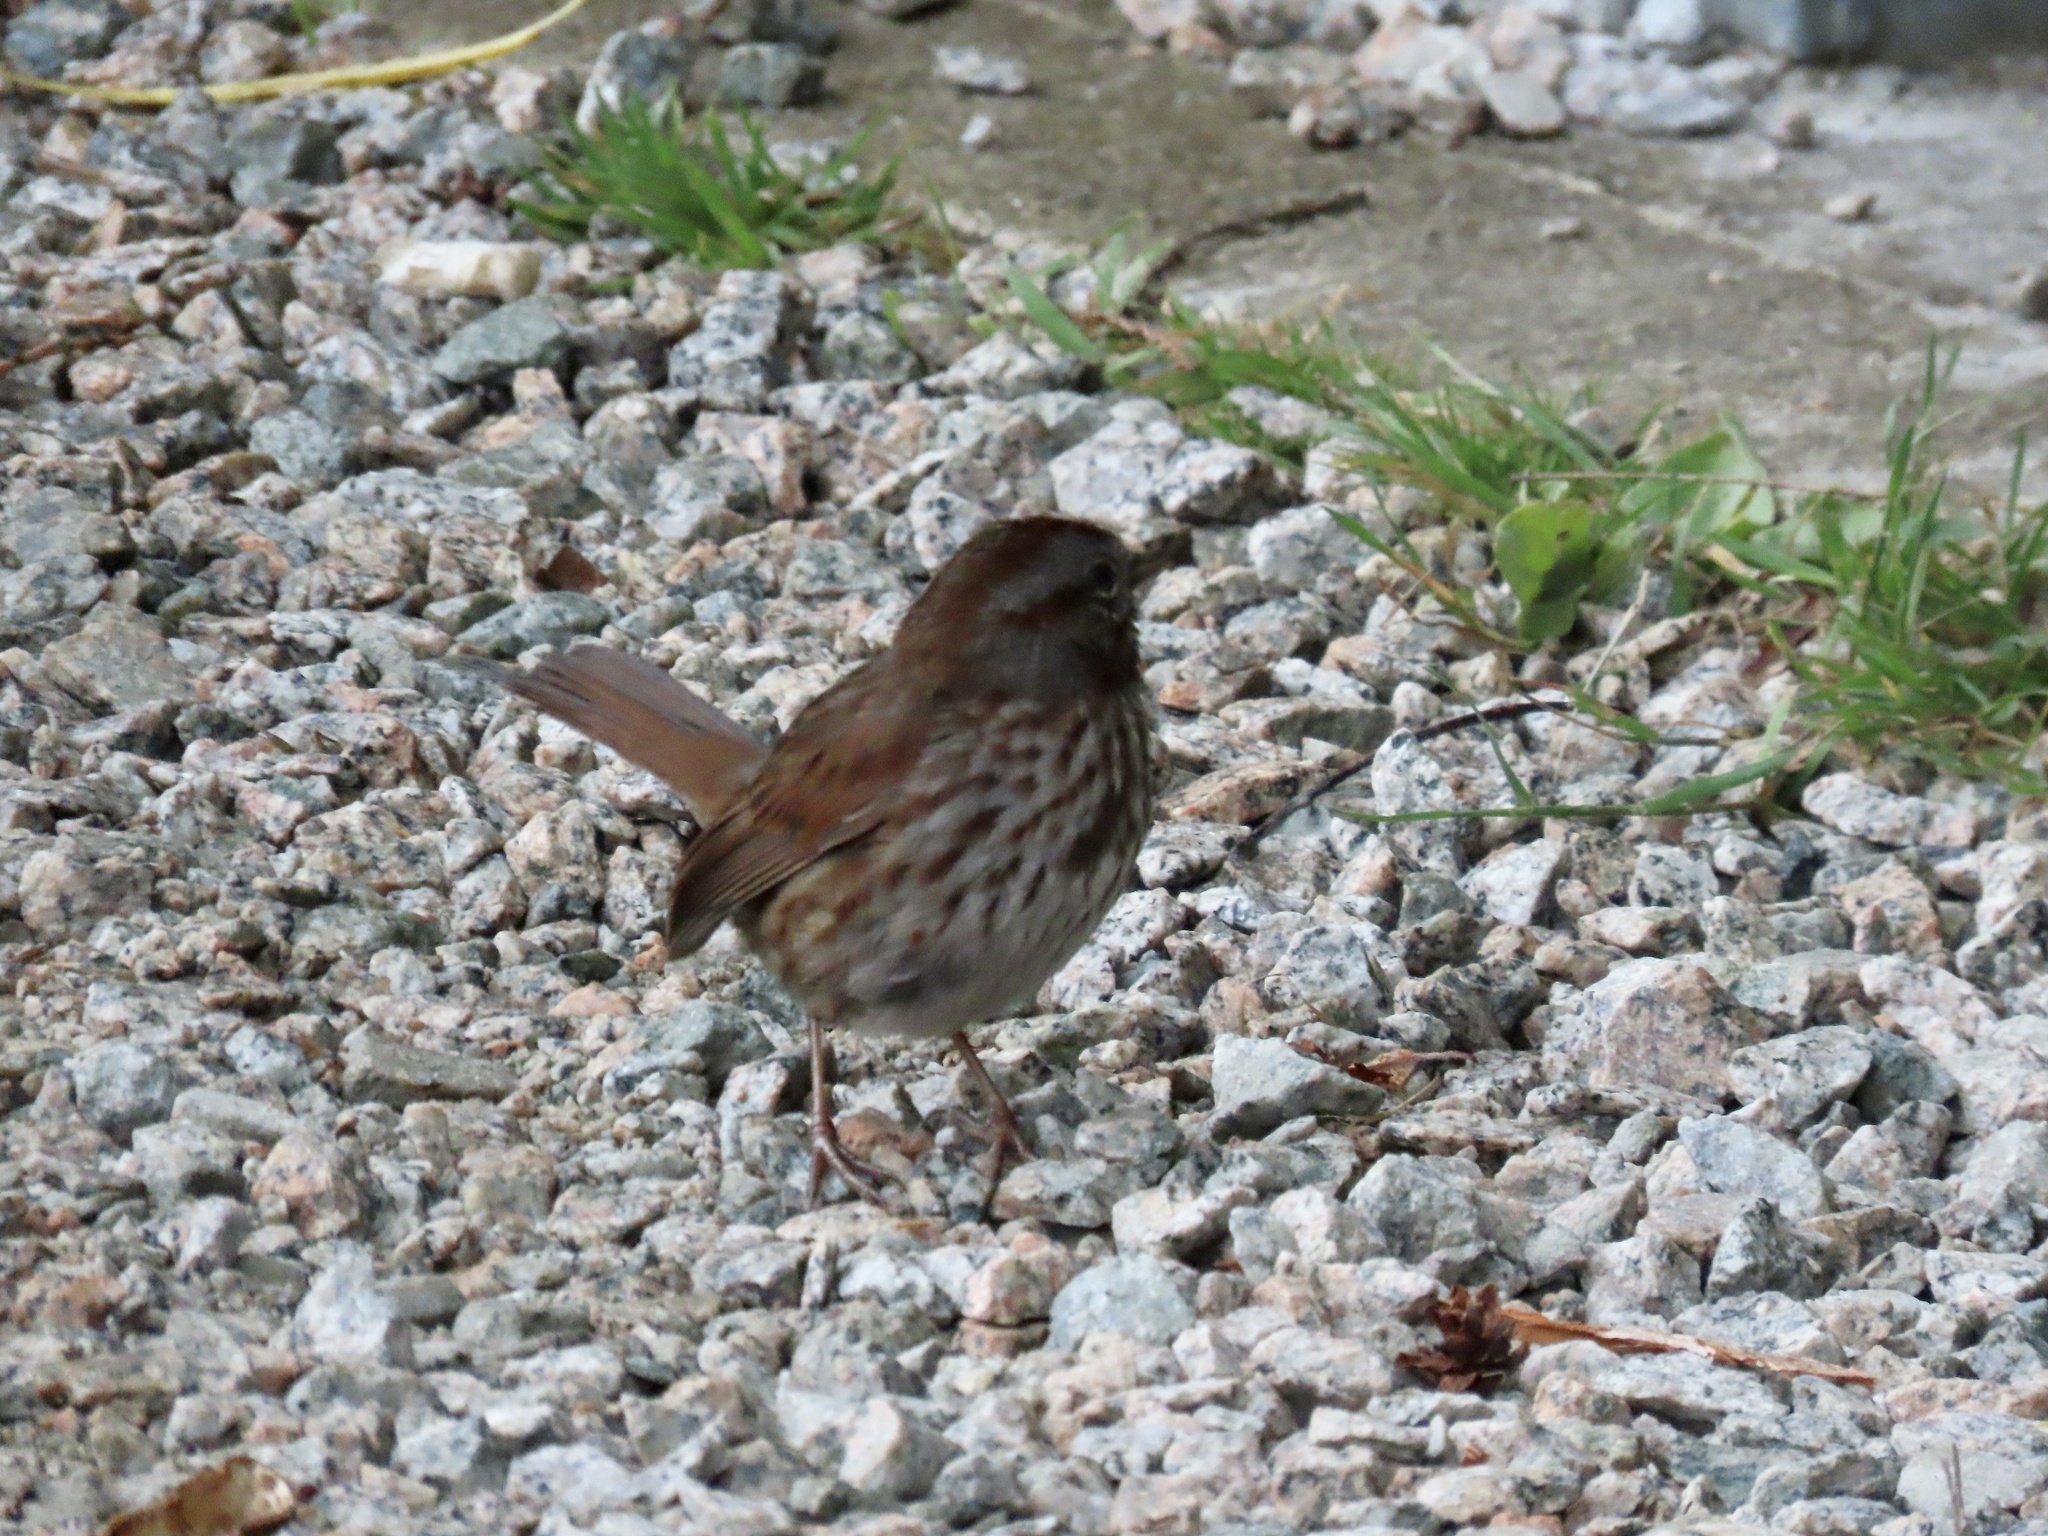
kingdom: Animalia
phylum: Chordata
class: Aves
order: Passeriformes
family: Passerellidae
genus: Melospiza
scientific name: Melospiza melodia
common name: Song sparrow
